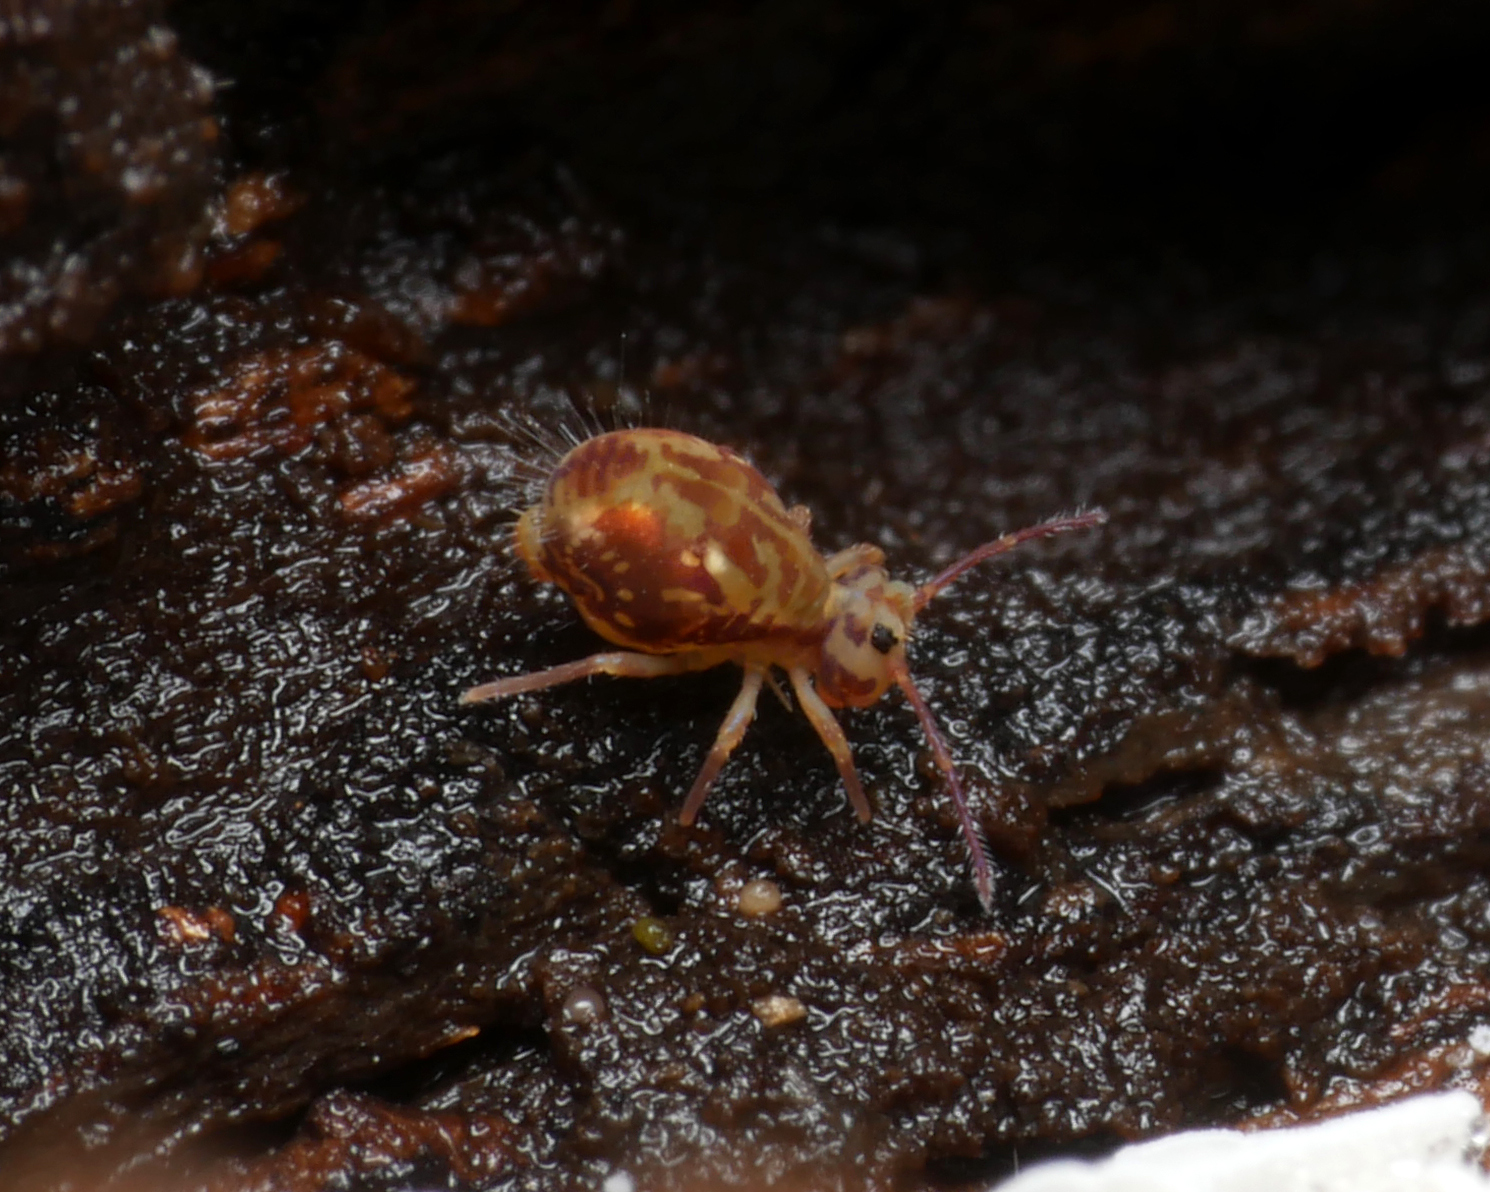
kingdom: Animalia
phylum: Arthropoda
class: Collembola
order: Symphypleona
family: Dicyrtomidae
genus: Dicyrtomina
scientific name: Dicyrtomina saundersi
